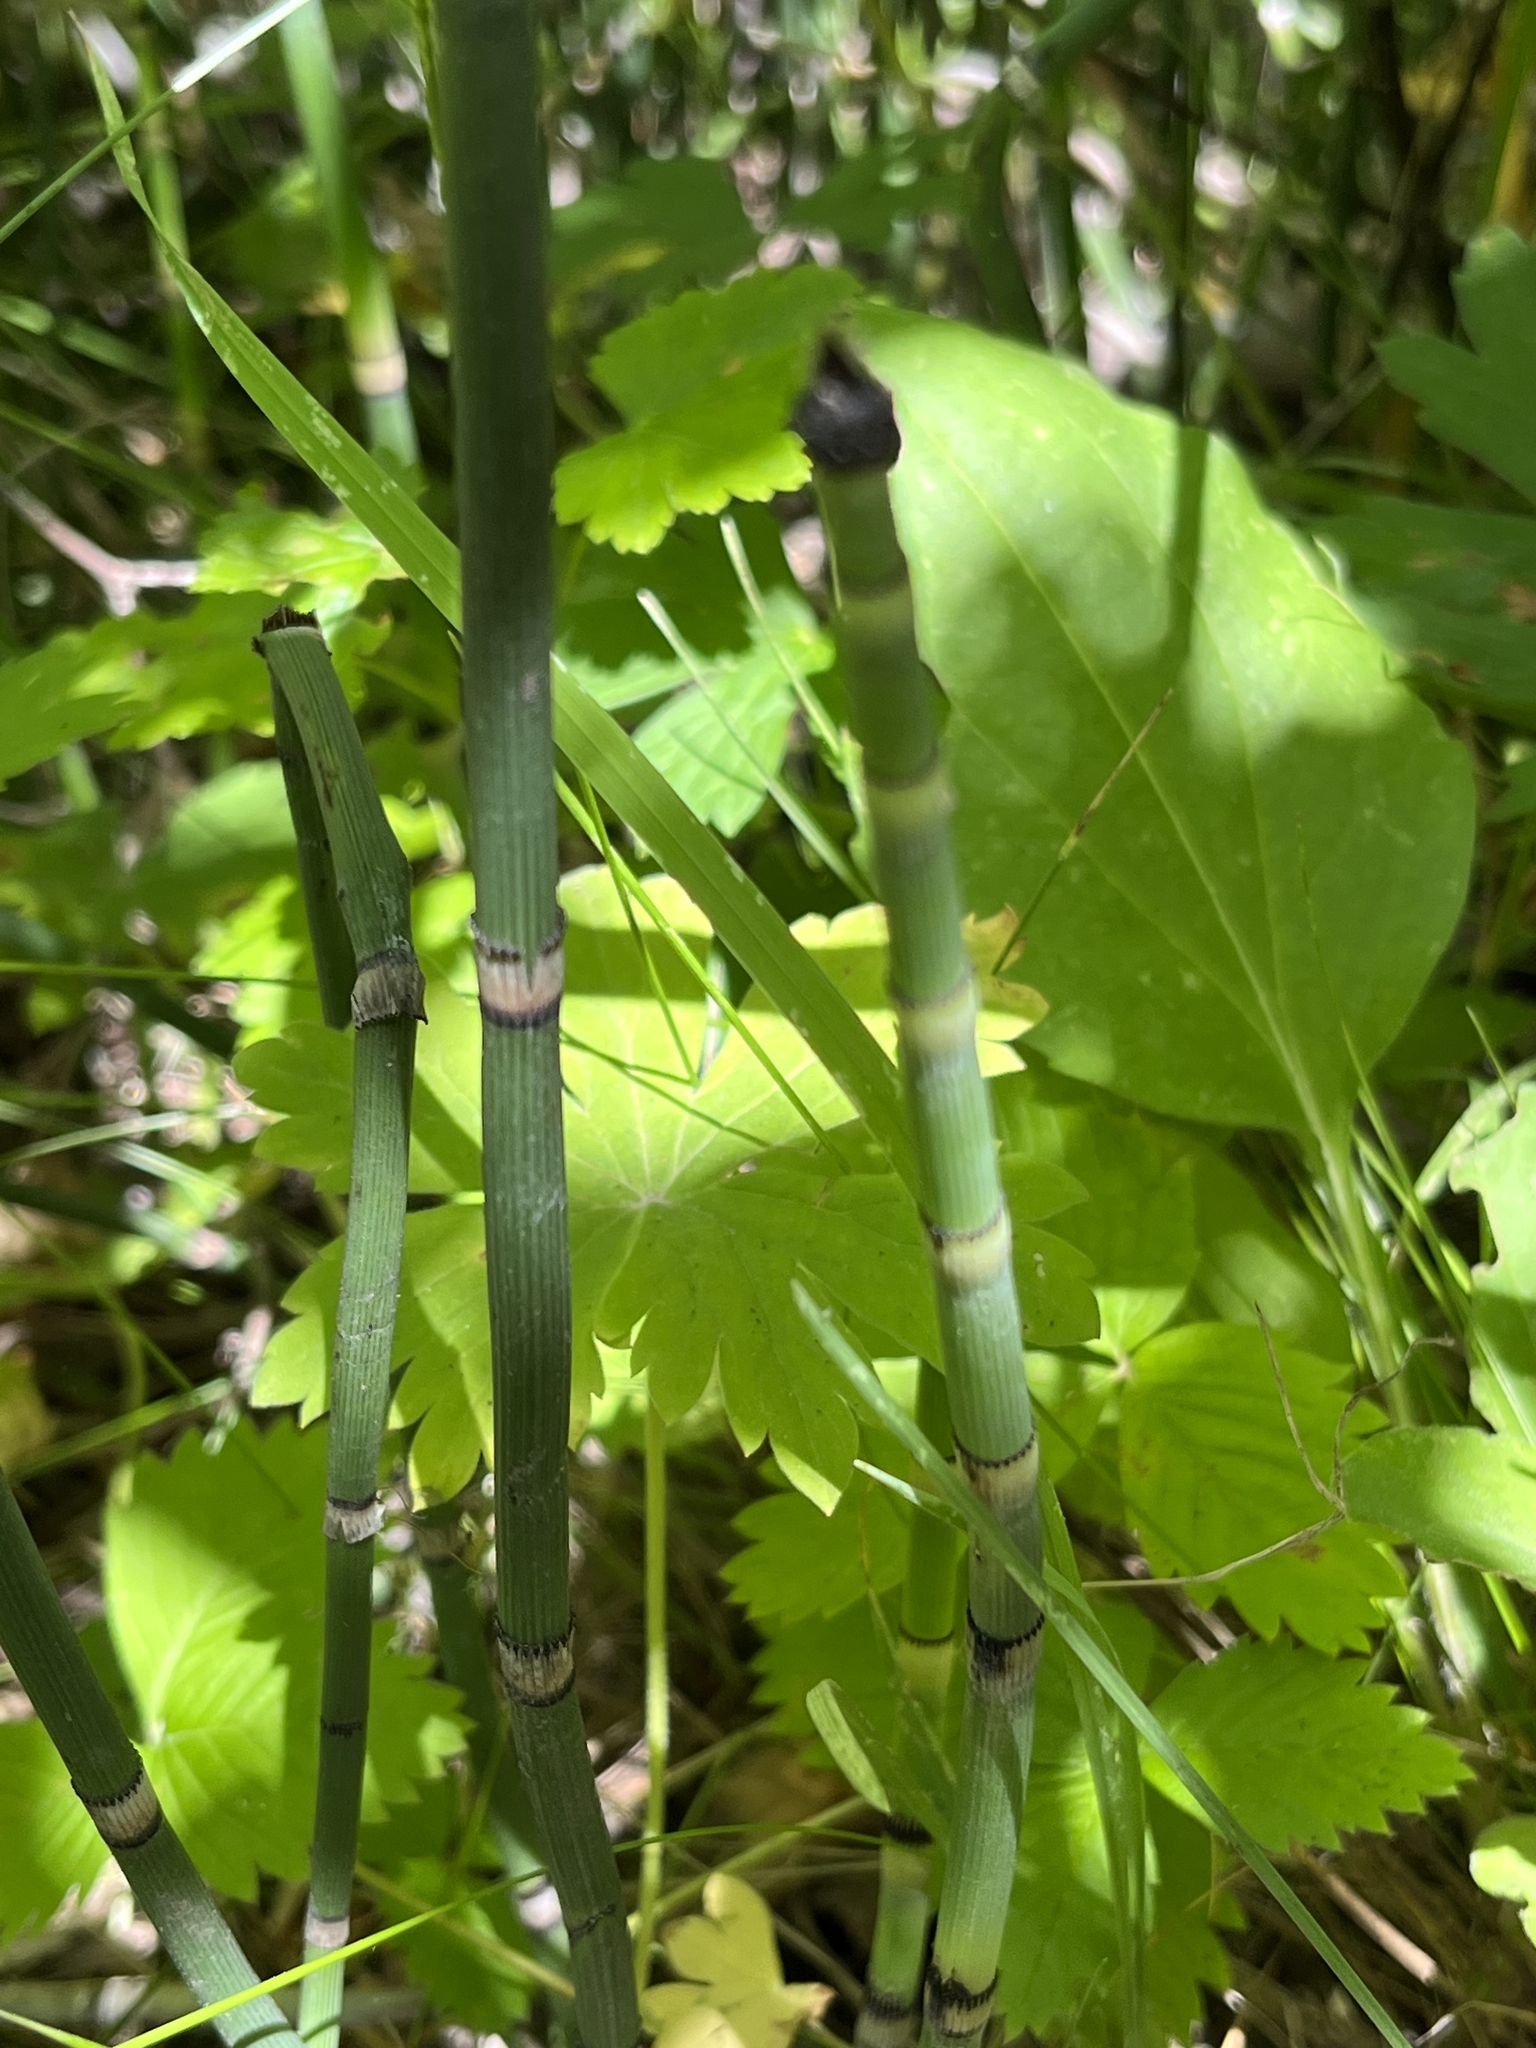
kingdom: Plantae
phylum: Tracheophyta
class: Polypodiopsida
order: Equisetales
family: Equisetaceae
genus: Equisetum
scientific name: Equisetum hyemale
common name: Rough horsetail
